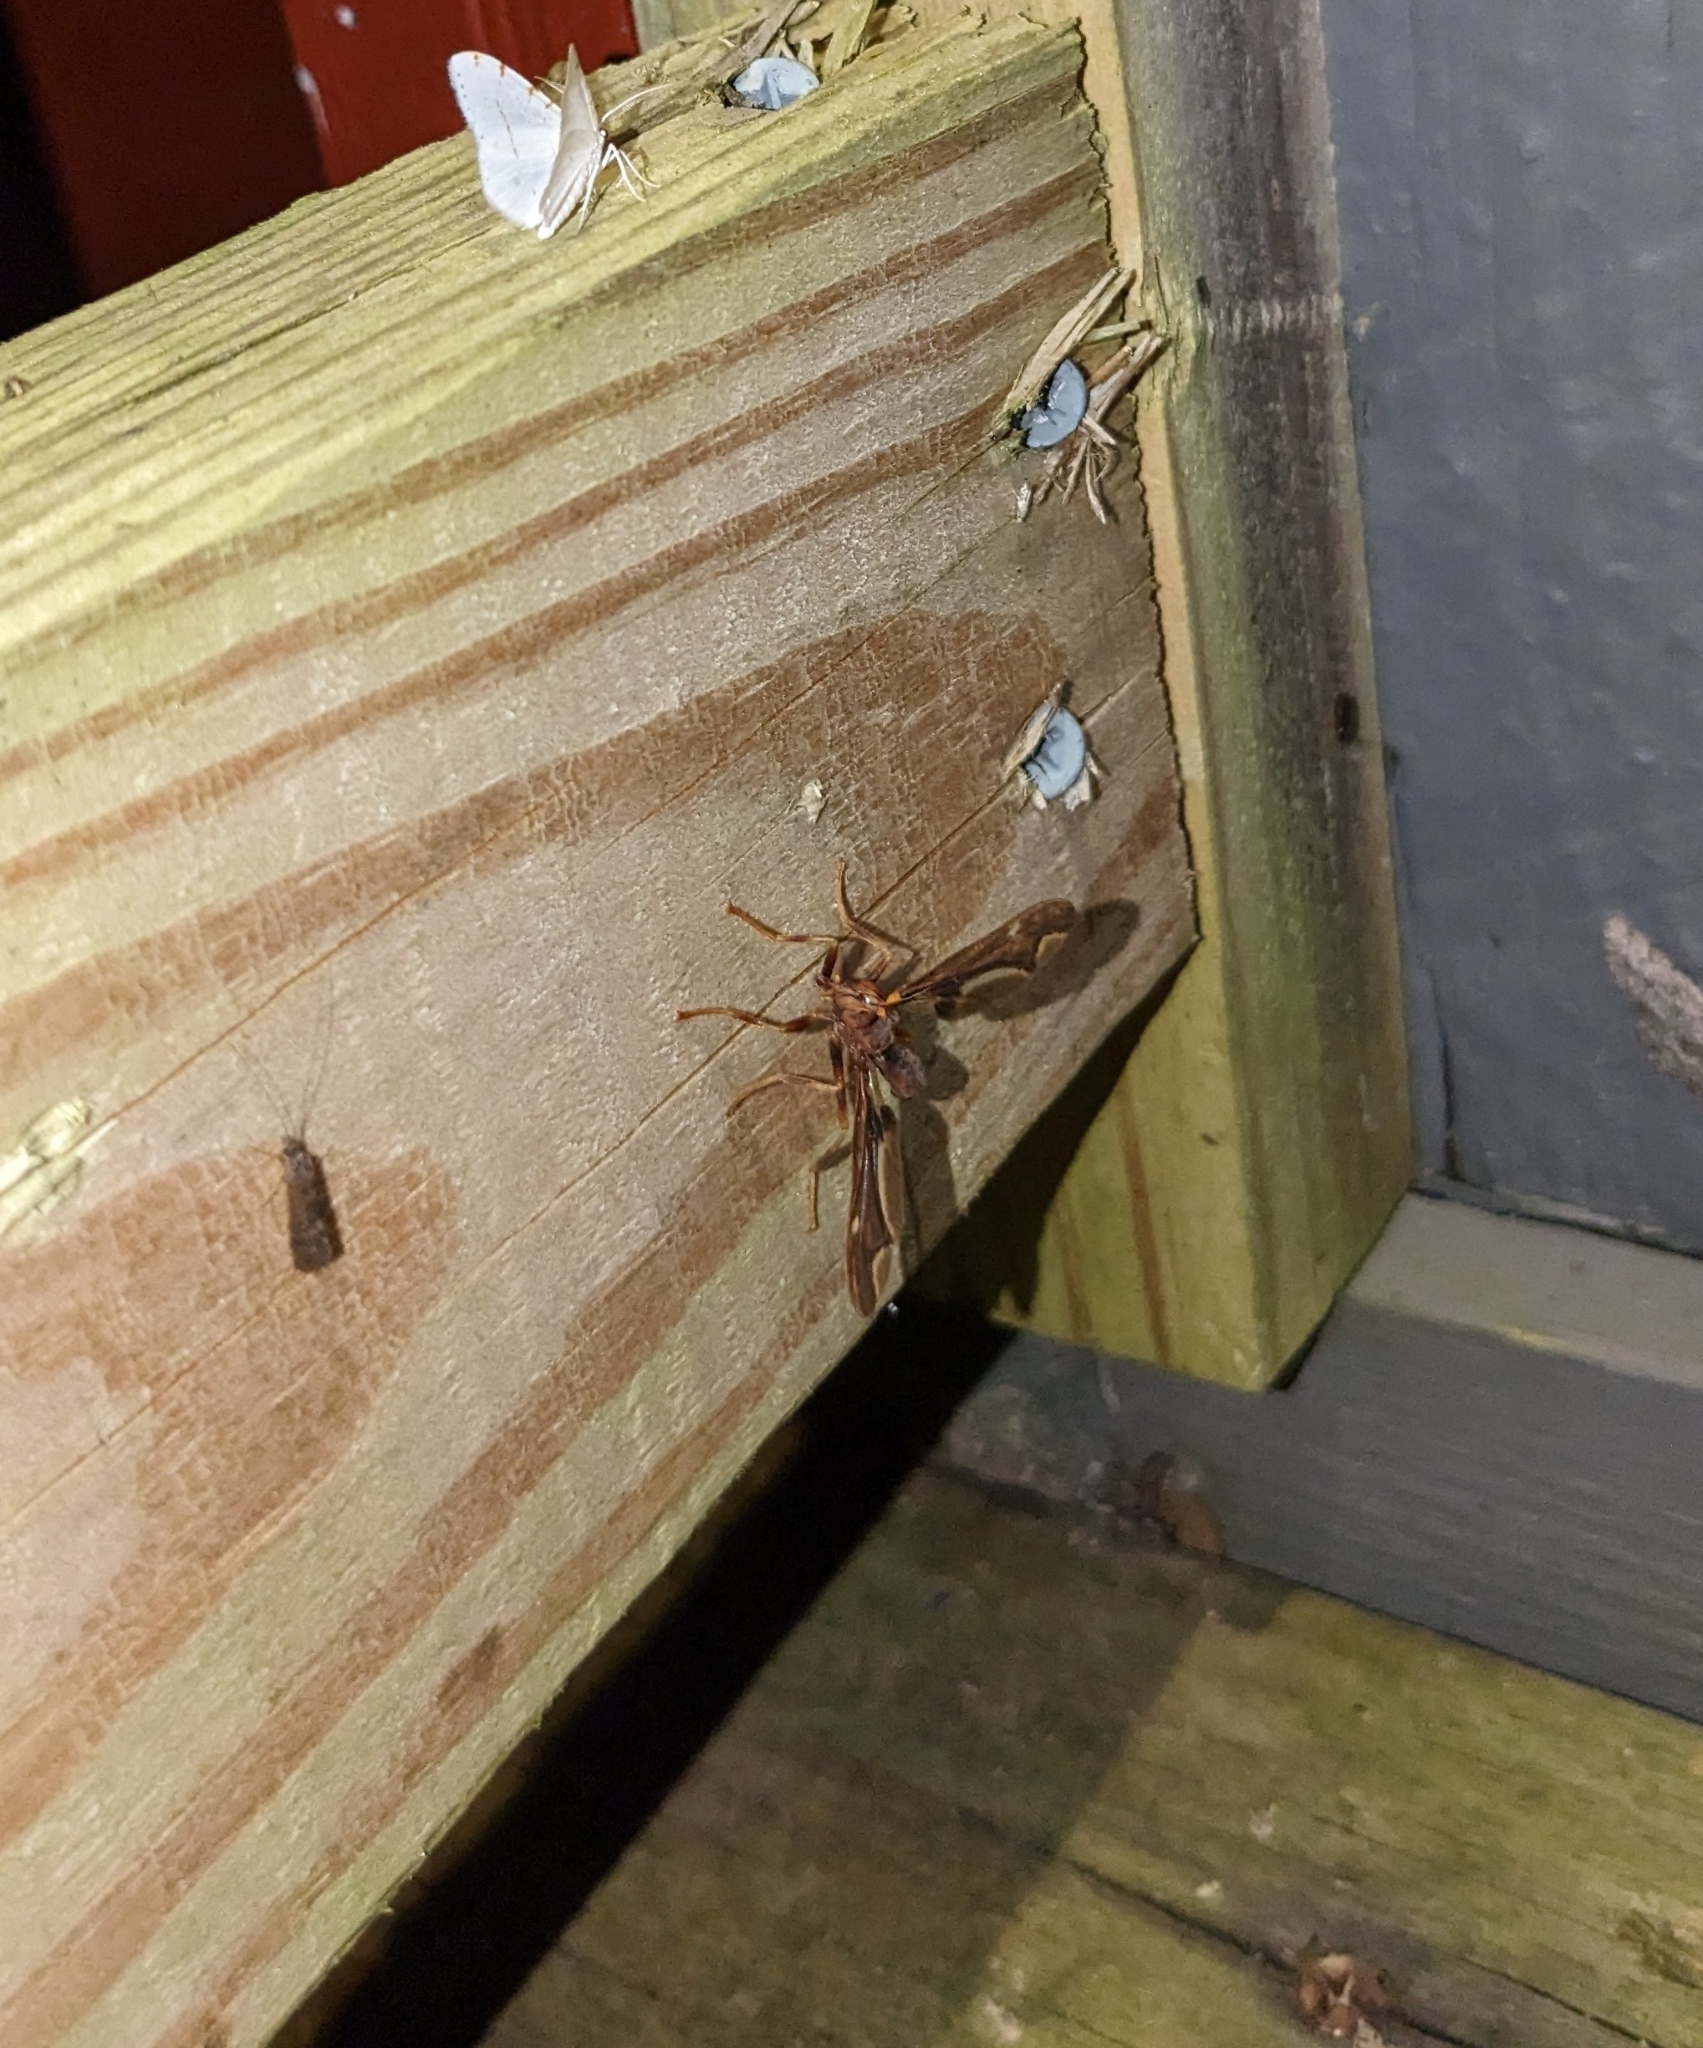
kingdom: Animalia
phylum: Arthropoda
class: Insecta
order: Diptera
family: Pyrgotidae
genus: Pyrgota
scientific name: Pyrgota undata
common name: Waved light fly
